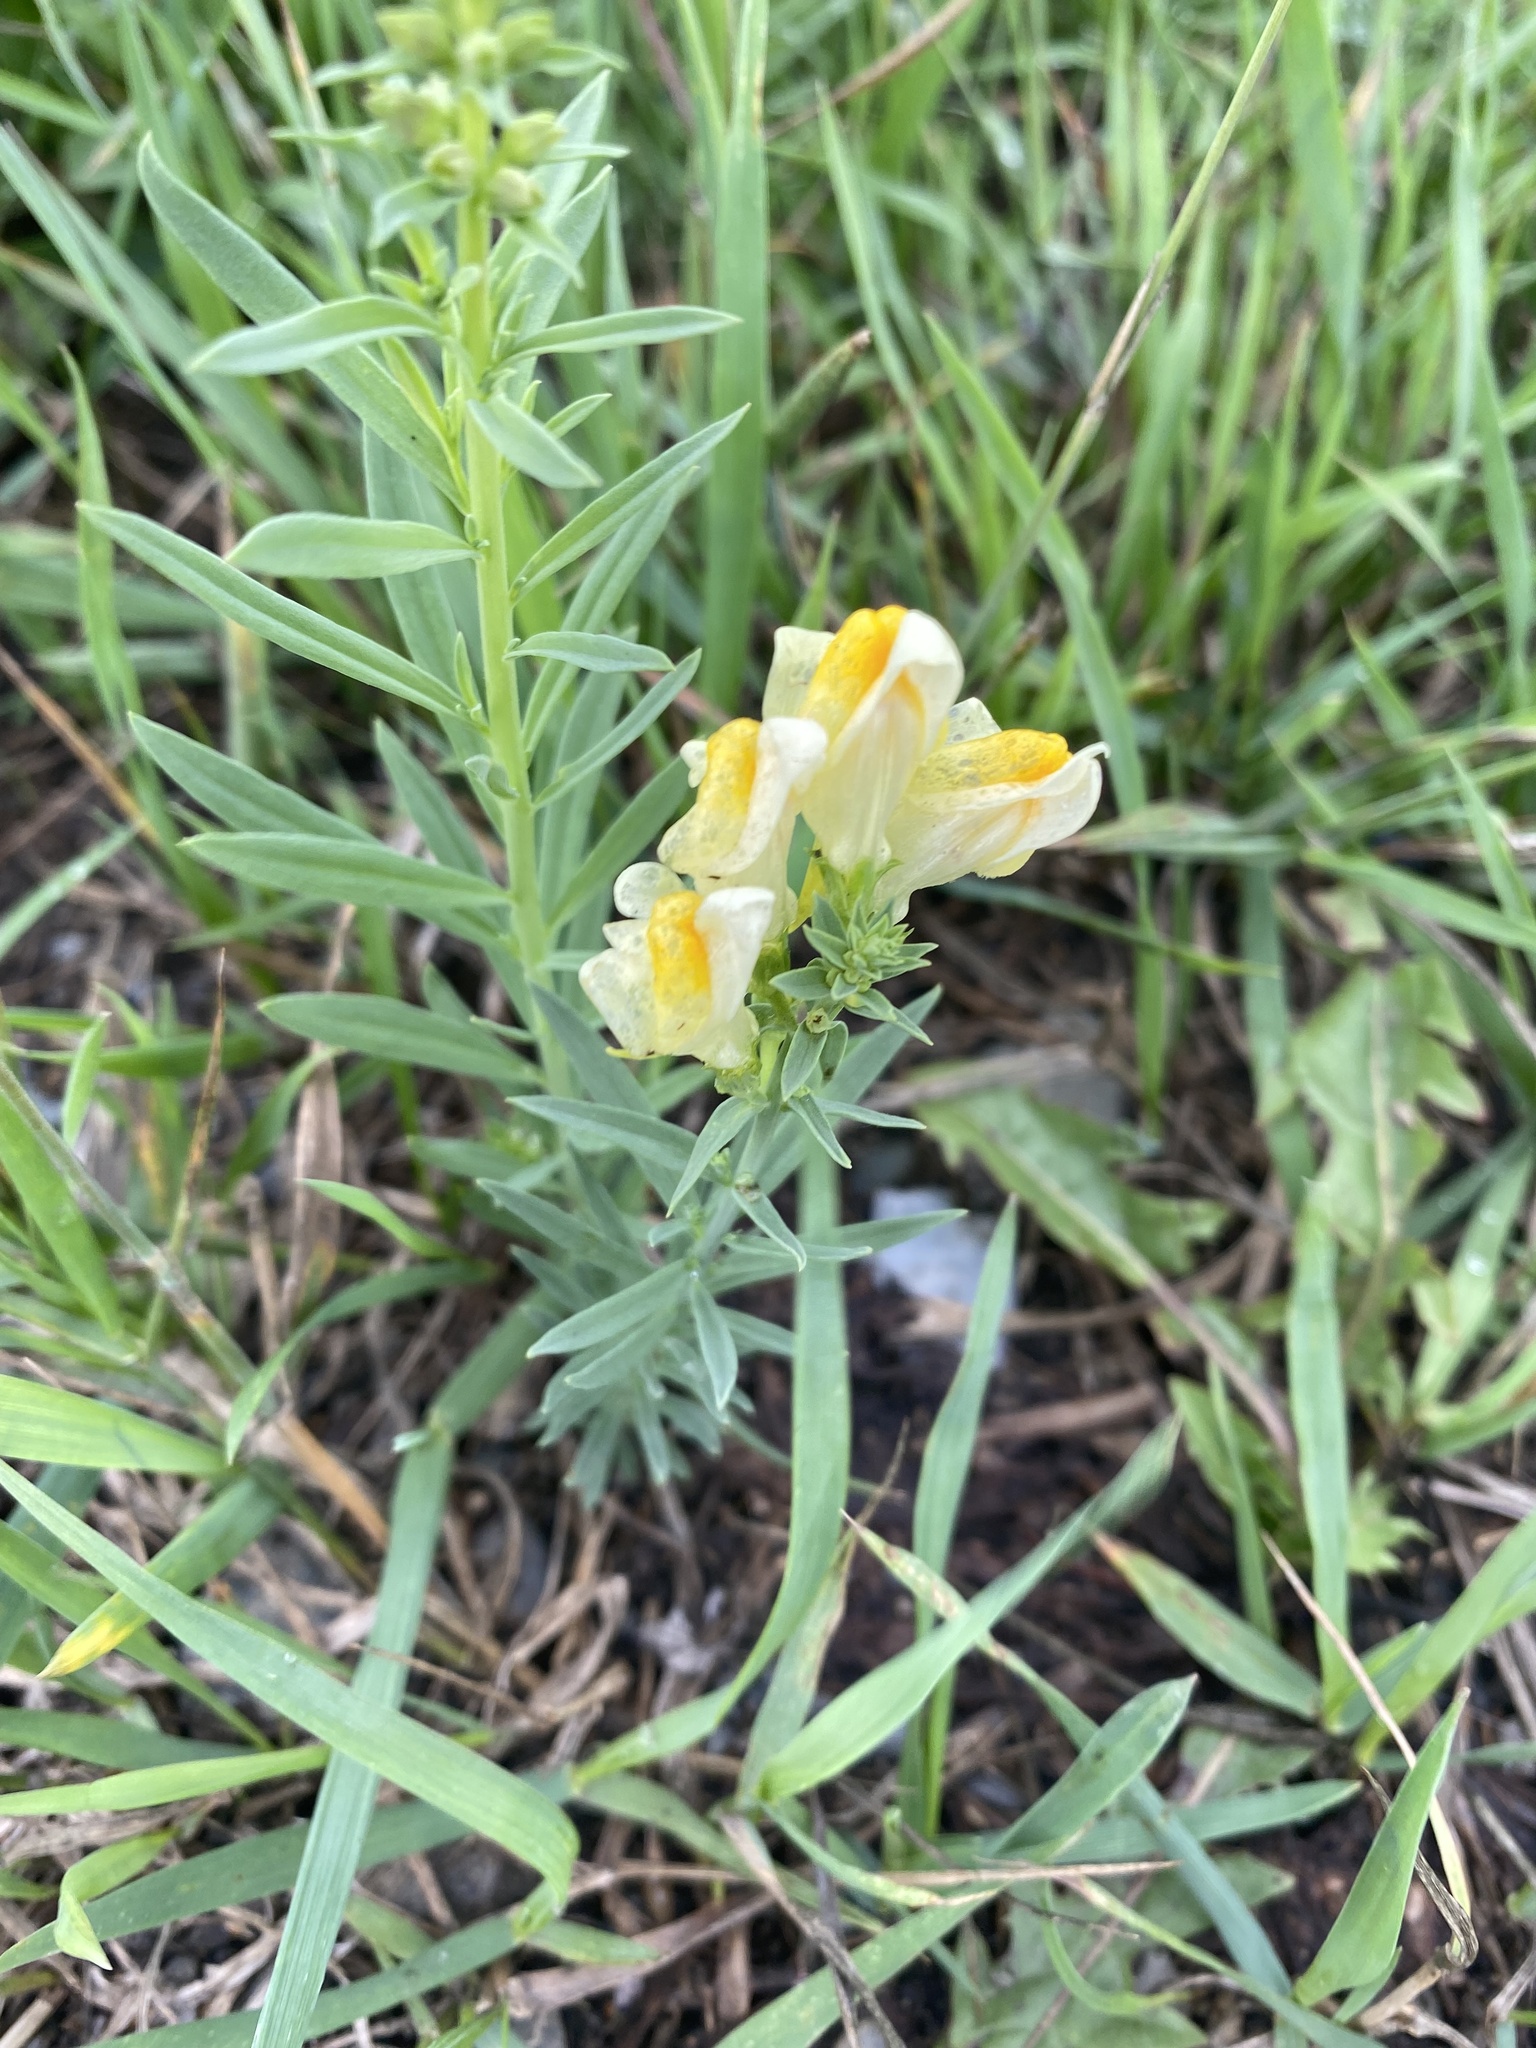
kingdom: Plantae
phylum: Tracheophyta
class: Magnoliopsida
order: Lamiales
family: Plantaginaceae
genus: Linaria
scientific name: Linaria vulgaris
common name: Butter and eggs
